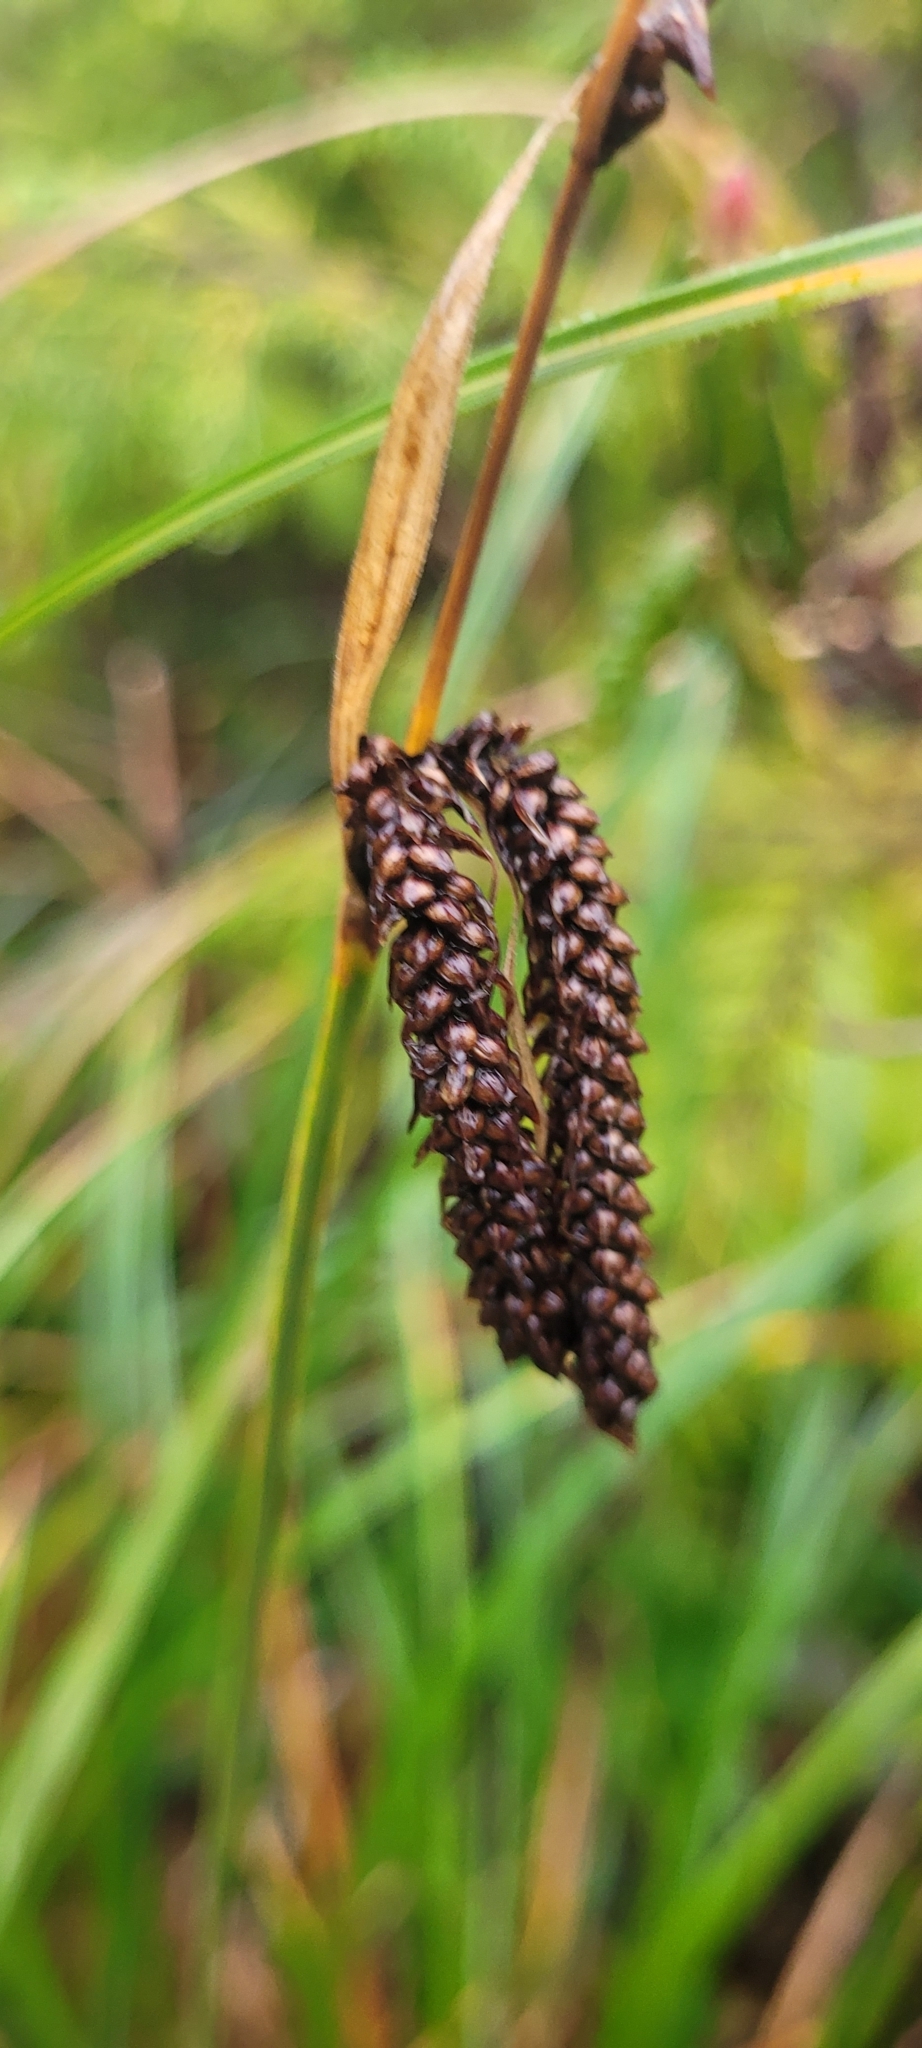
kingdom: Plantae
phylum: Tracheophyta
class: Liliopsida
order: Poales
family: Cyperaceae
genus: Carex
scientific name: Carex obnupta
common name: Slough sedge
